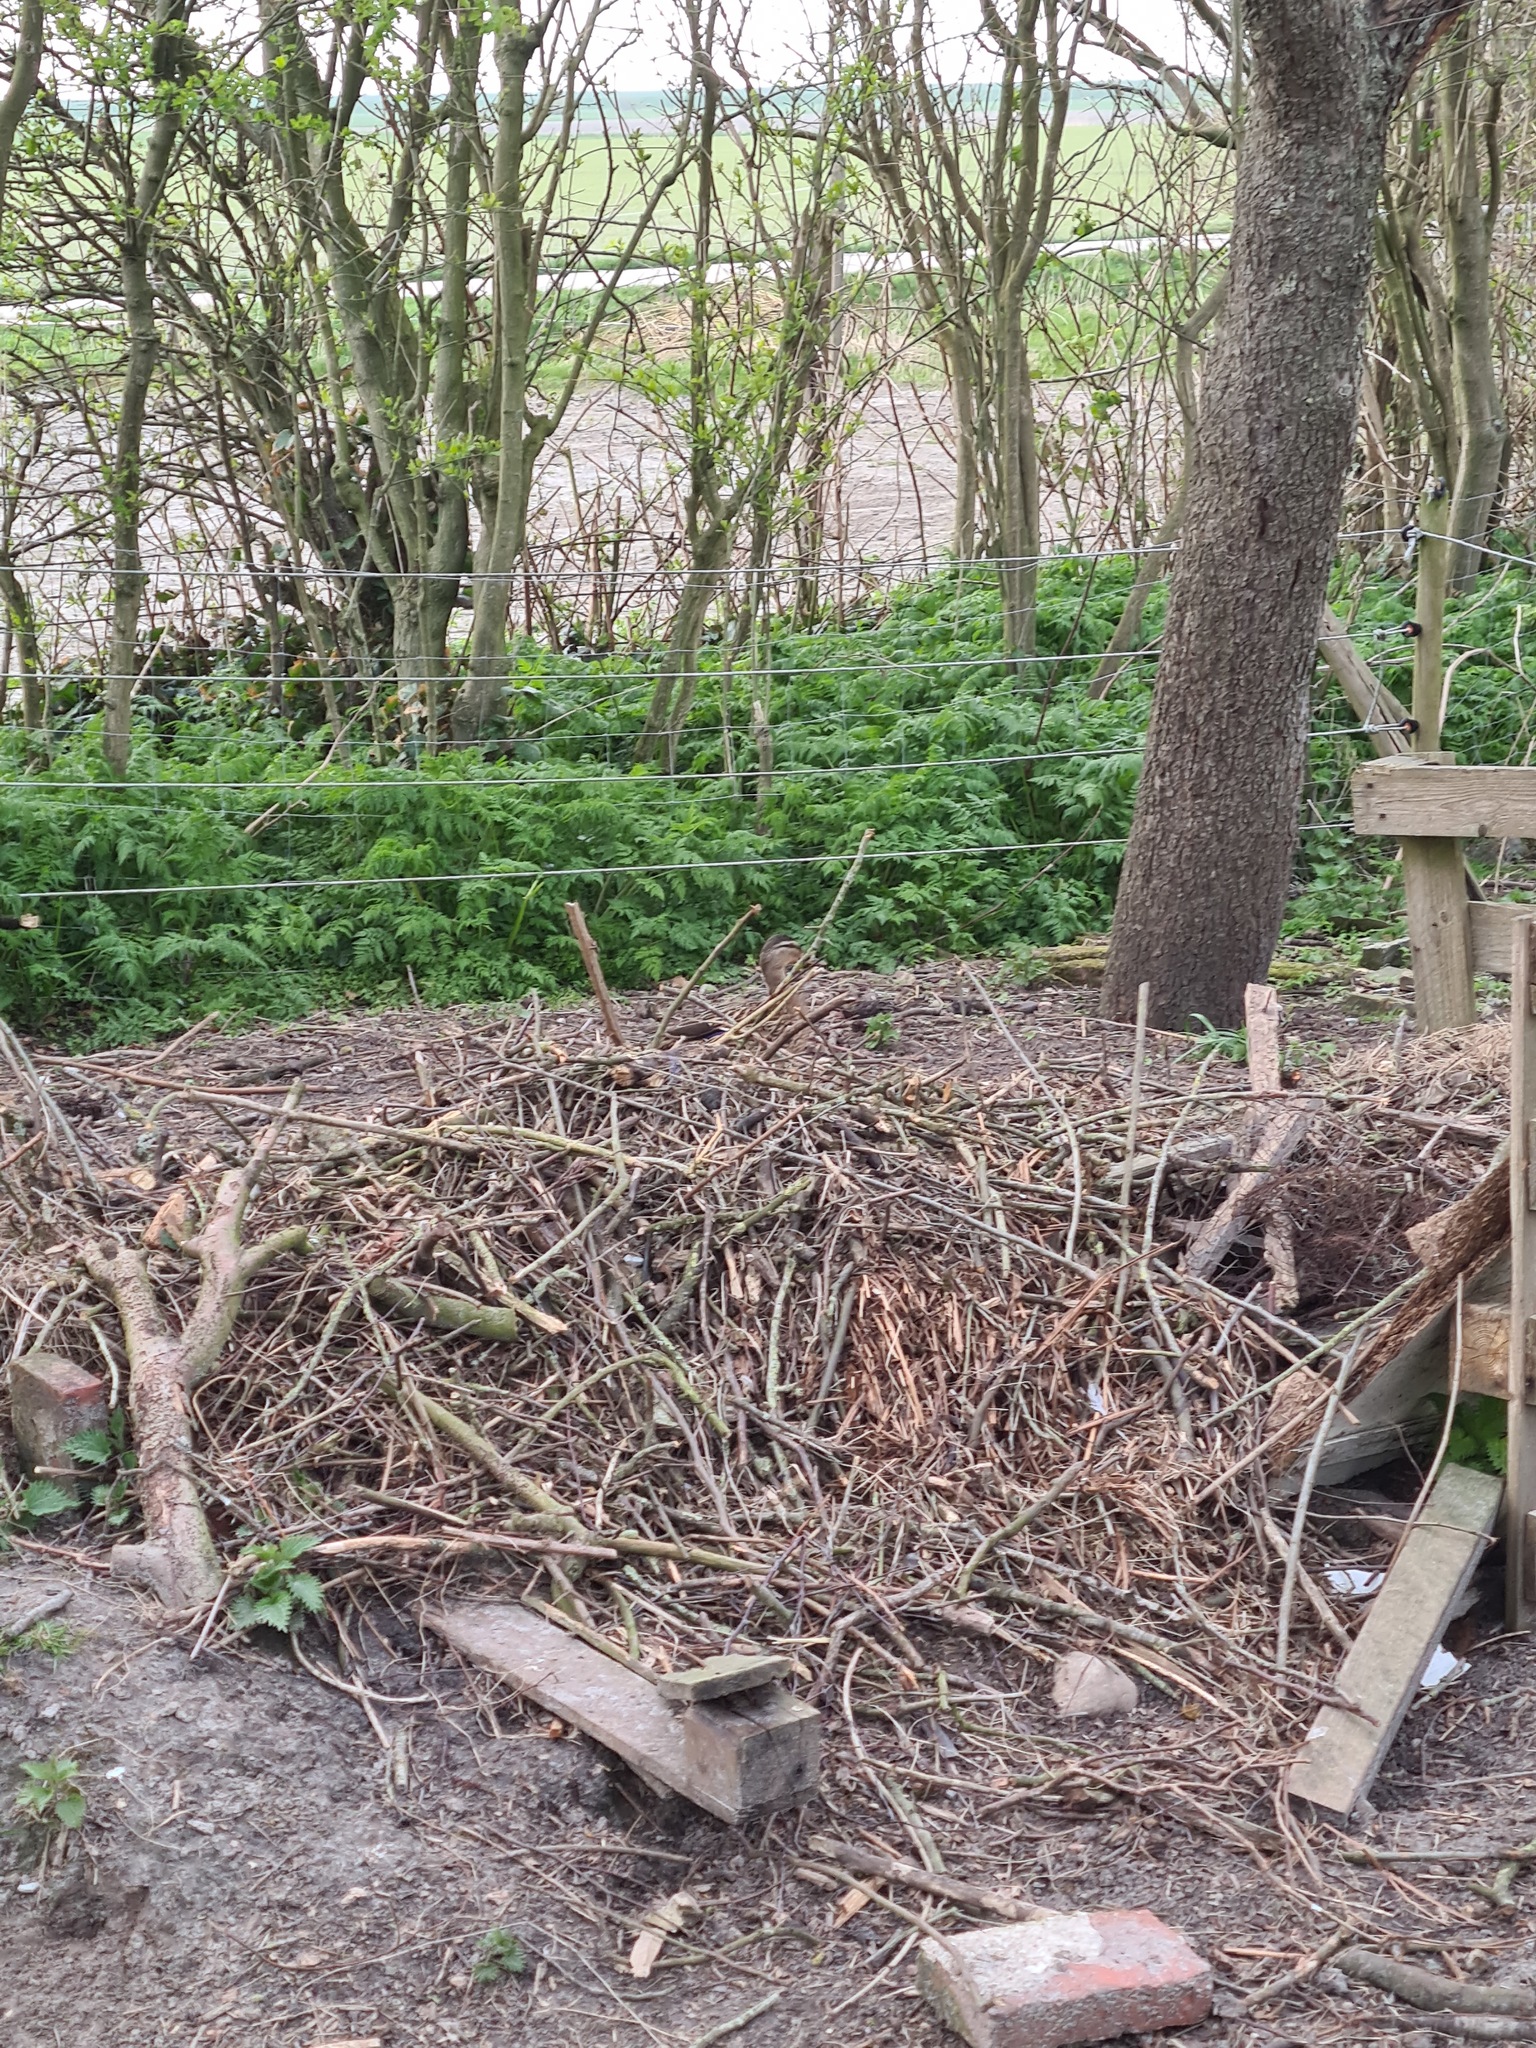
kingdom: Animalia
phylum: Chordata
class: Aves
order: Anseriformes
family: Anatidae
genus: Anas
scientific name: Anas platyrhynchos
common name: Mallard
